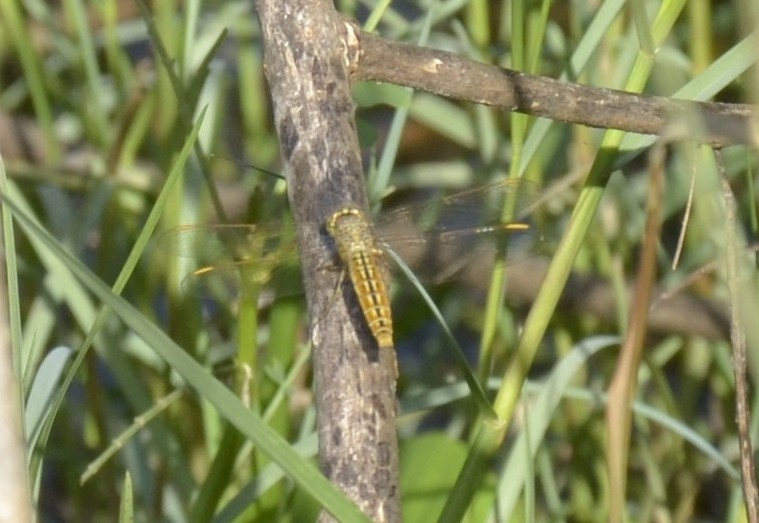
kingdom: Animalia
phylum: Arthropoda
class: Insecta
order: Odonata
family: Libellulidae
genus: Brachythemis
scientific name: Brachythemis contaminata
